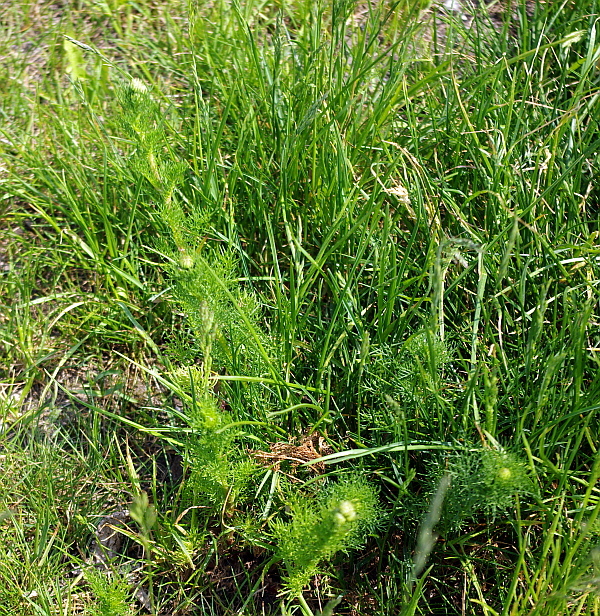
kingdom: Plantae
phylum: Tracheophyta
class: Magnoliopsida
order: Asterales
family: Asteraceae
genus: Tripleurospermum
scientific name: Tripleurospermum inodorum
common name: Scentless mayweed
